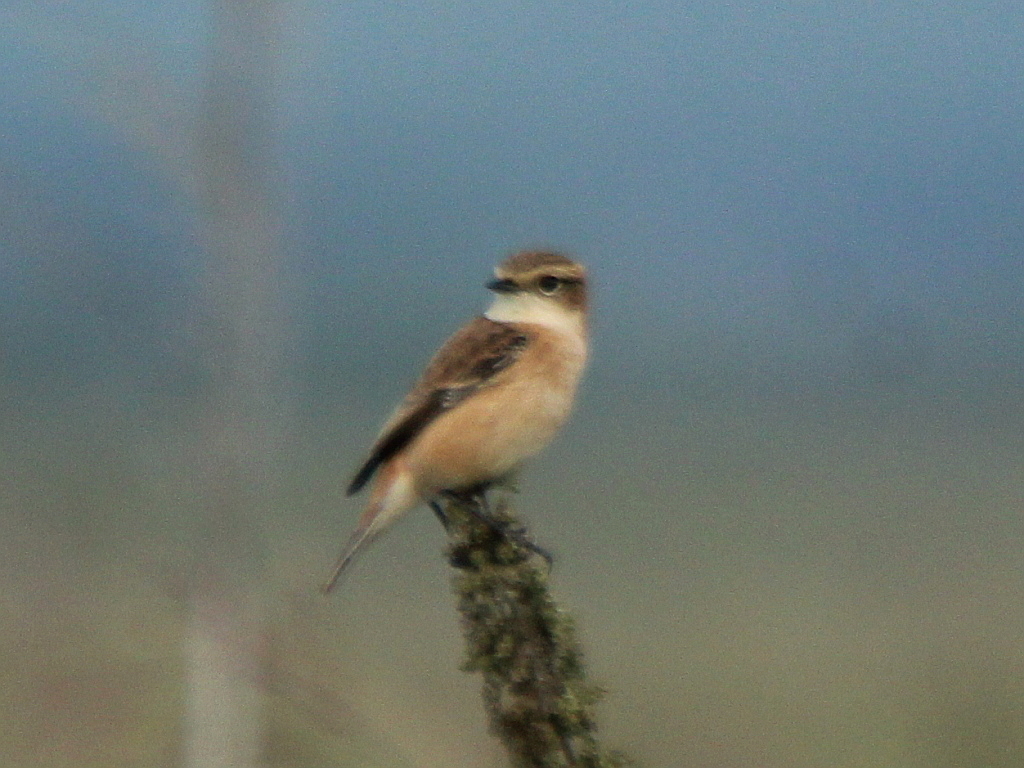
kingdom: Animalia
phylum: Chordata
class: Aves
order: Passeriformes
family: Muscicapidae
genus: Saxicola
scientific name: Saxicola stejnegeri
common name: Stejneger's stonechat
